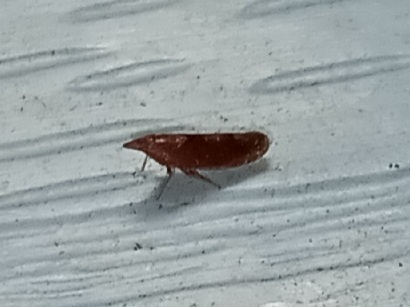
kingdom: Animalia
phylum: Arthropoda
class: Insecta
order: Hemiptera
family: Cicadellidae
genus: Scaphytopius
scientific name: Scaphytopius rubellus
